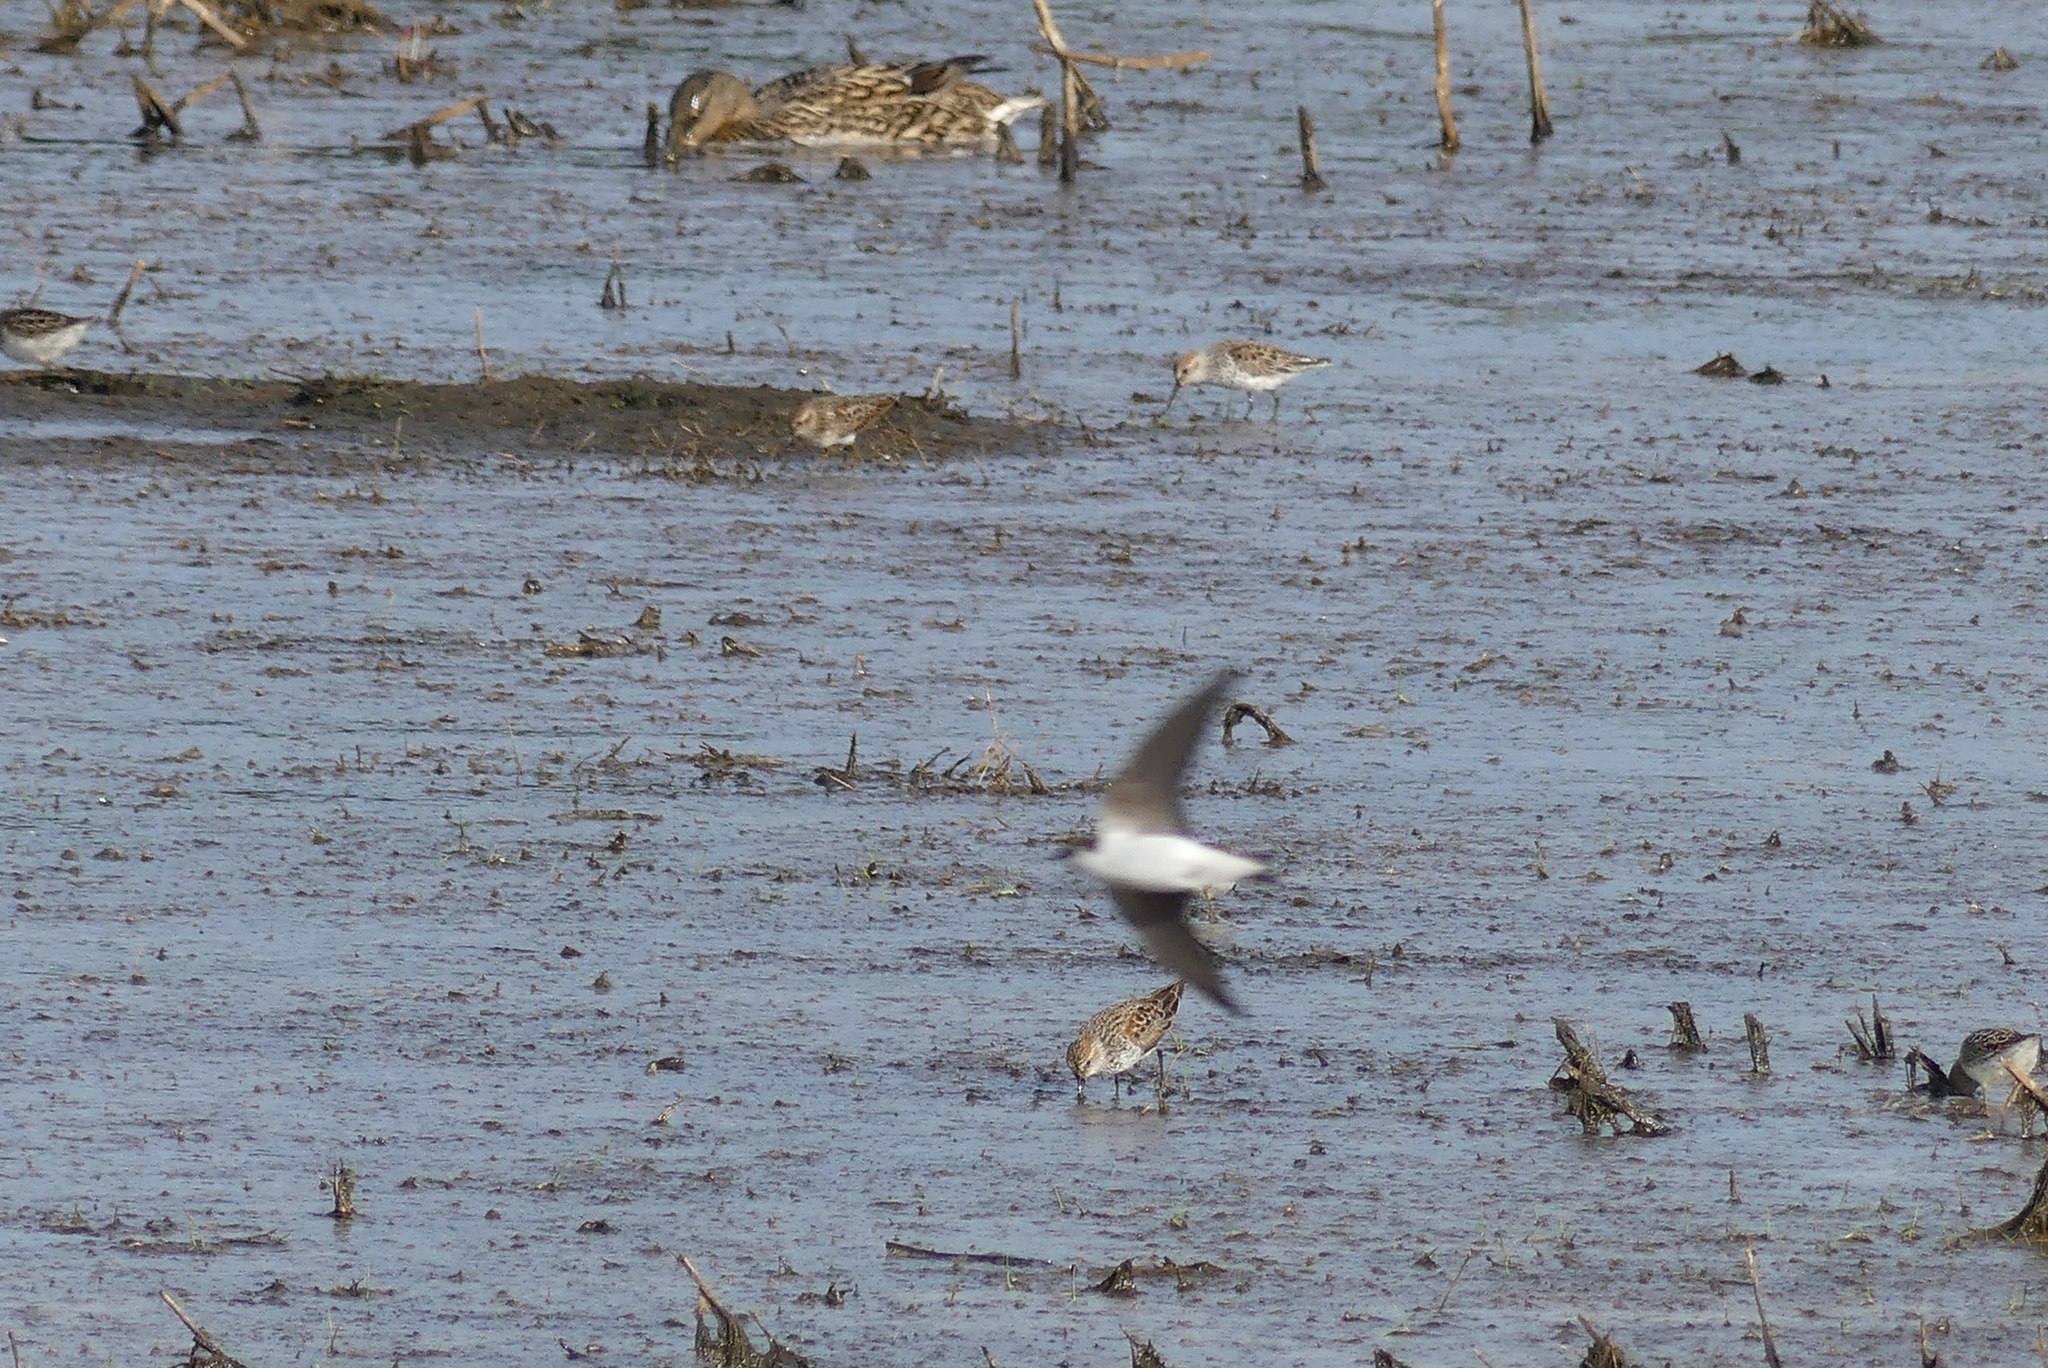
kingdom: Animalia
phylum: Chordata
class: Aves
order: Passeriformes
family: Hirundinidae
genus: Tachycineta
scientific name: Tachycineta thalassina
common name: Violet-green swallow
